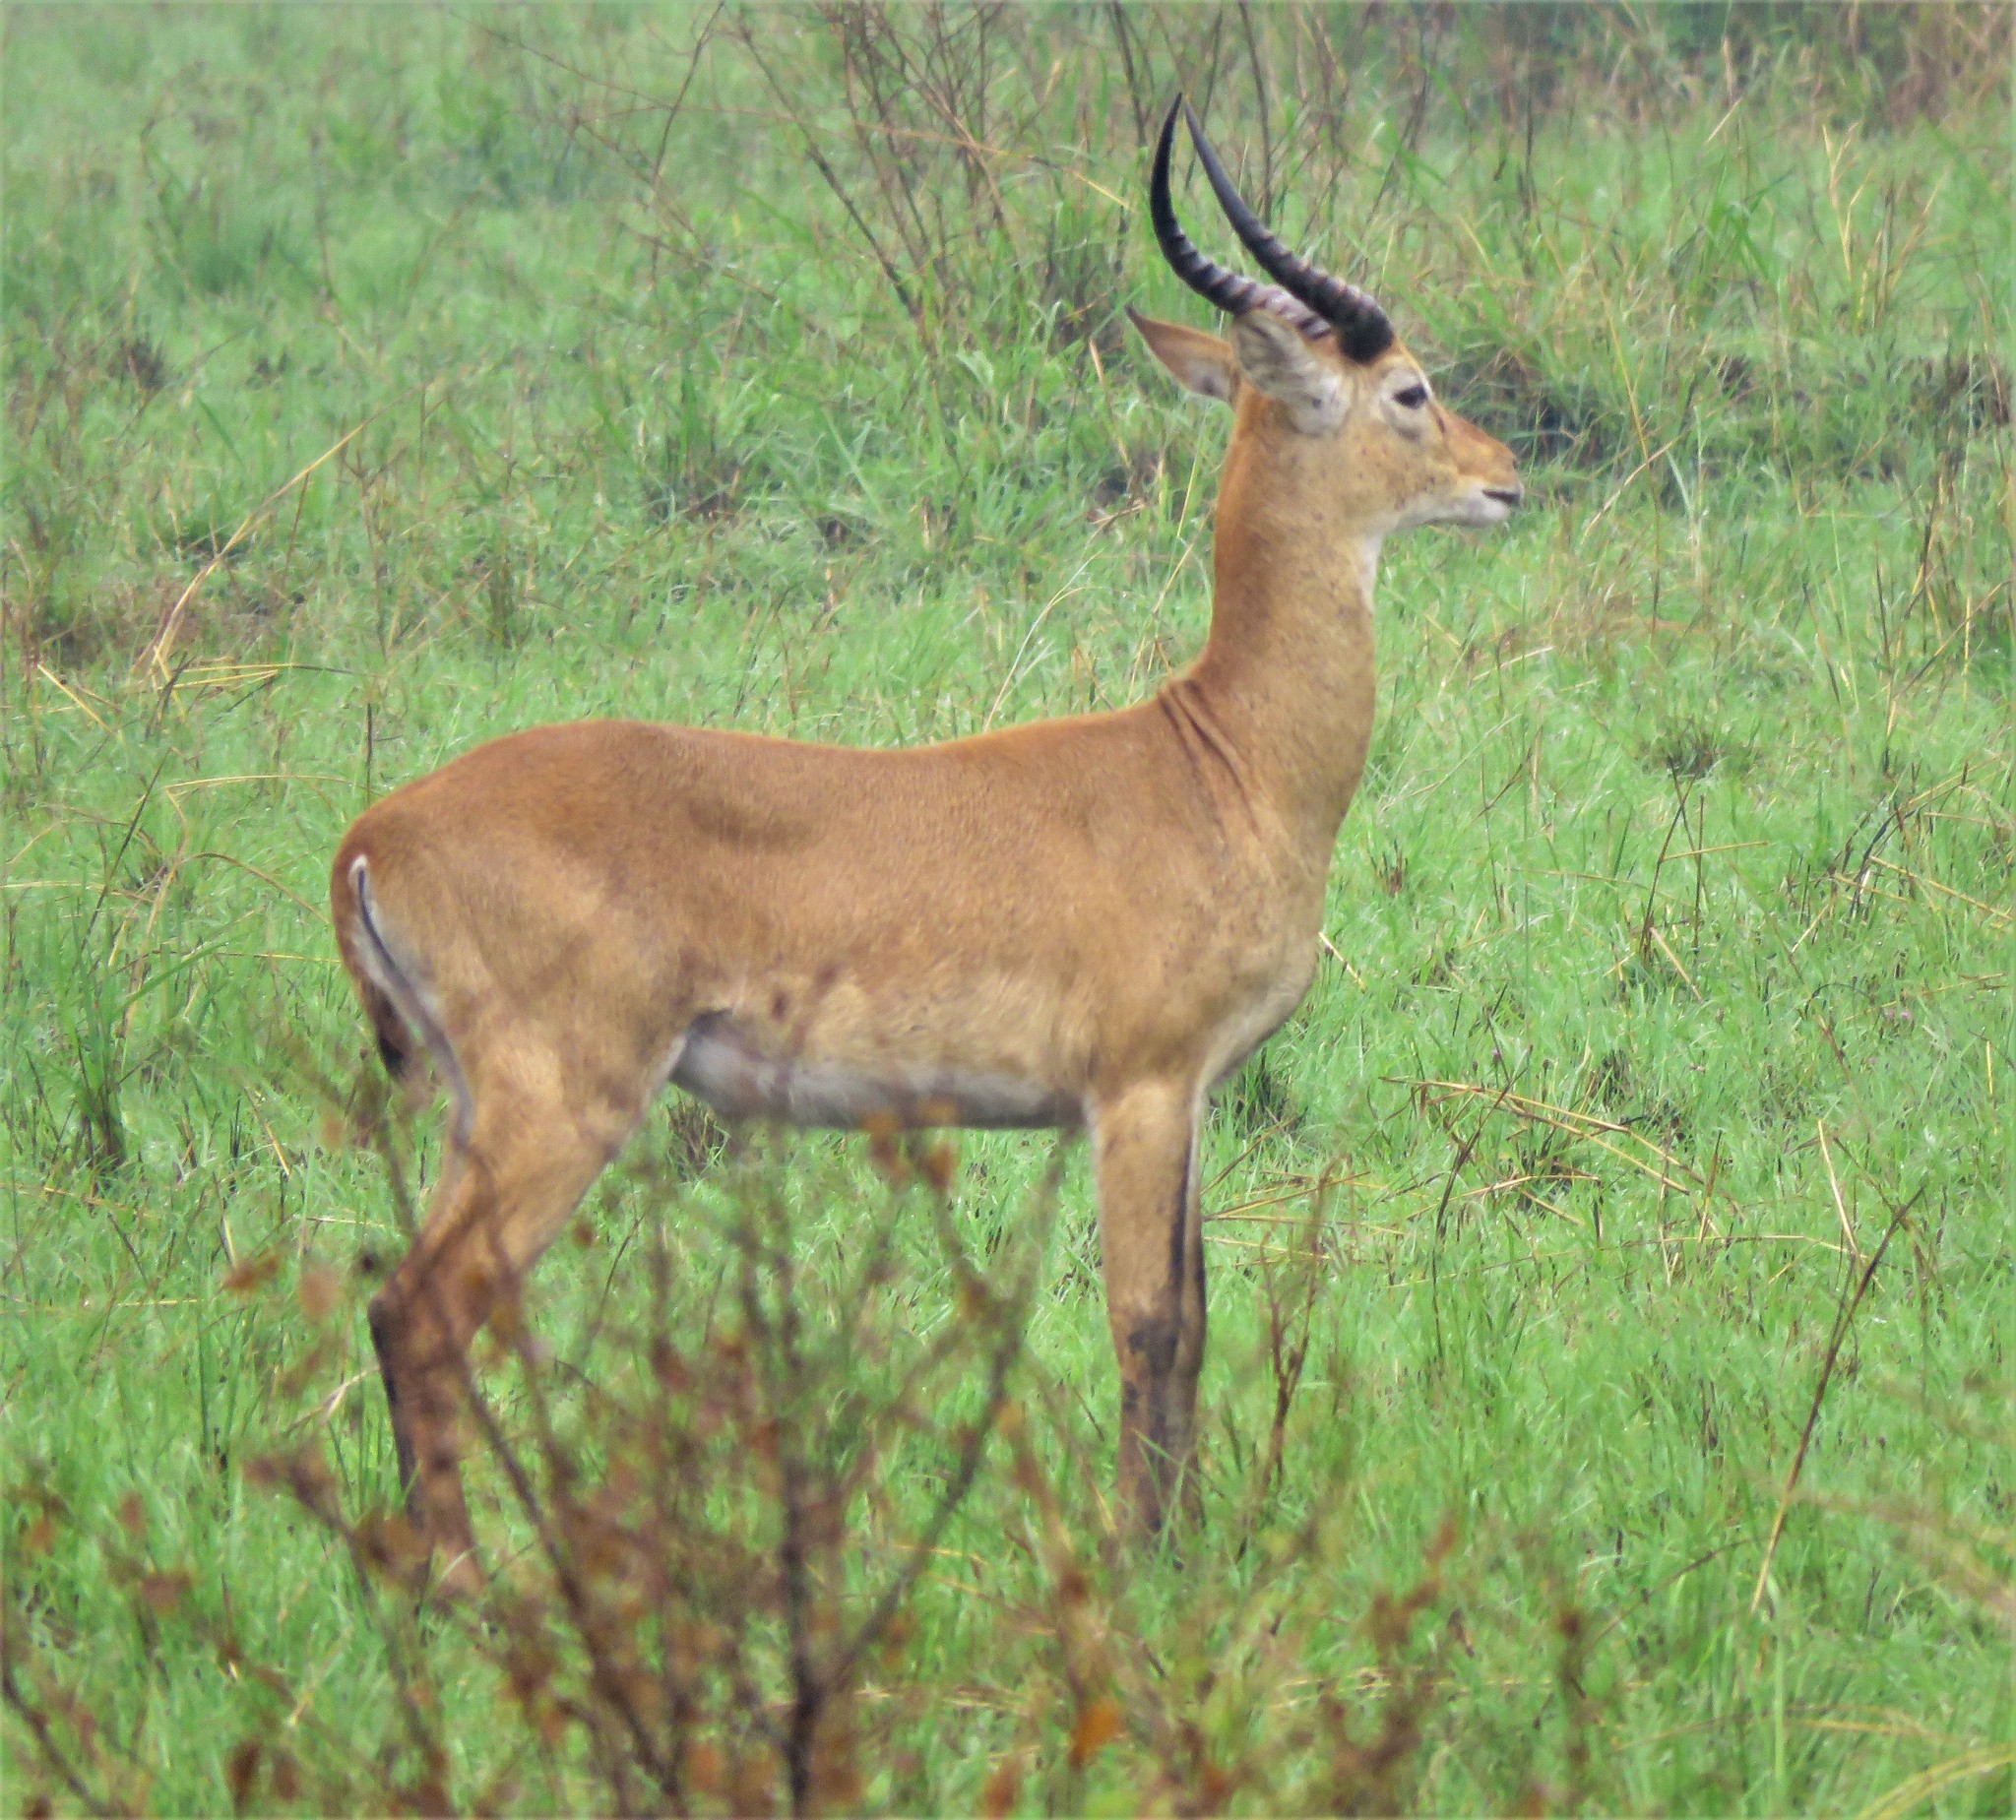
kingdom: Animalia
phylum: Chordata
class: Mammalia
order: Artiodactyla
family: Bovidae
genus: Kobus
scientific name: Kobus kob
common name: Kob
